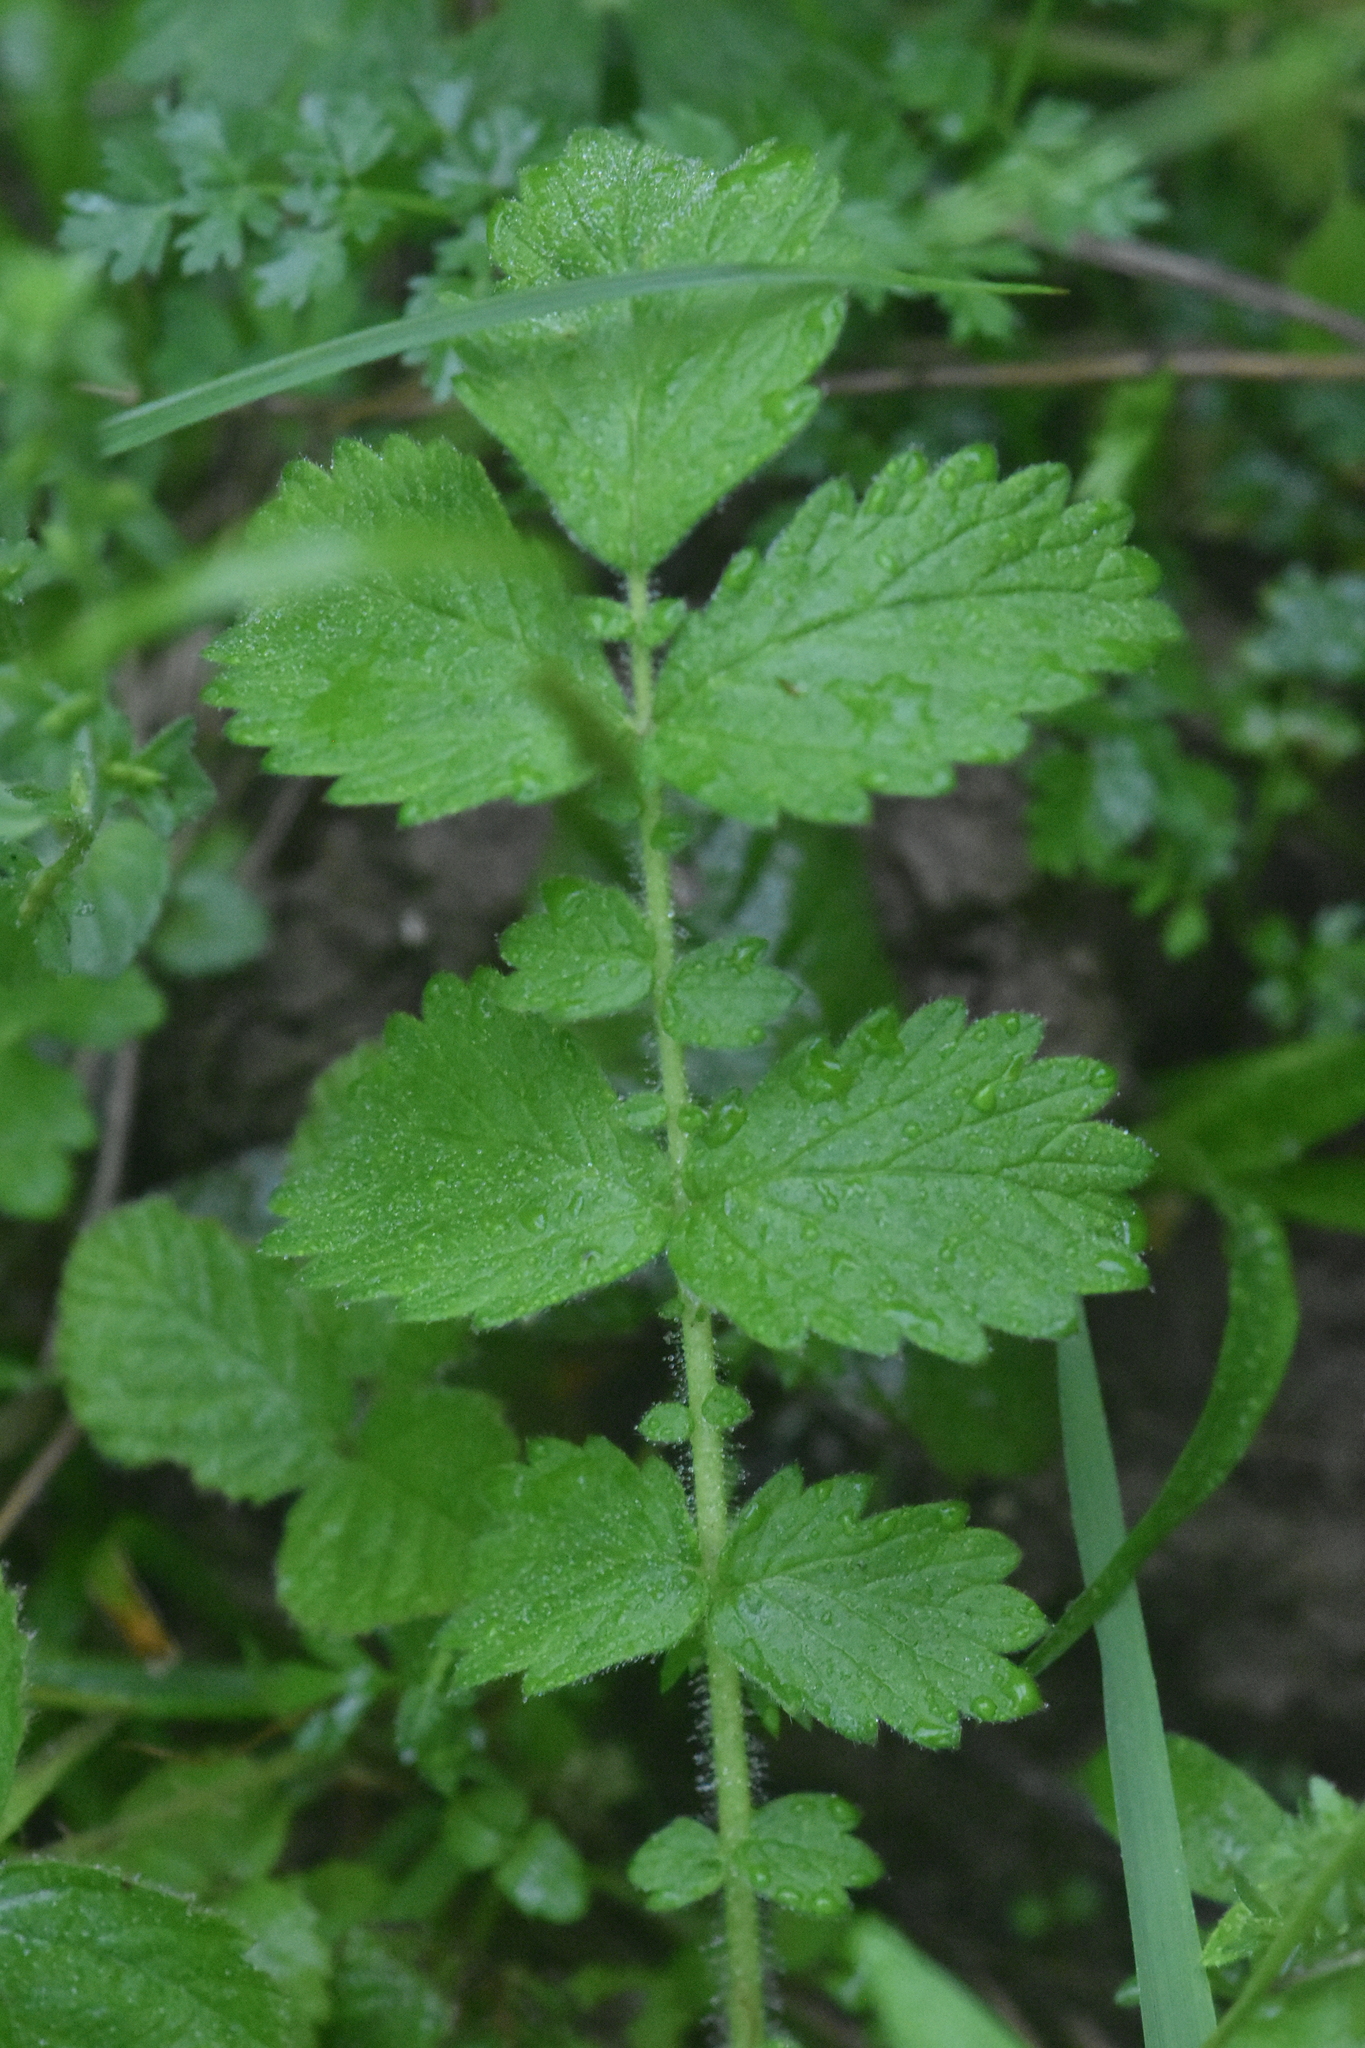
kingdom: Plantae
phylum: Tracheophyta
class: Magnoliopsida
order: Rosales
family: Rosaceae
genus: Agrimonia
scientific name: Agrimonia eupatoria
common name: Agrimony
